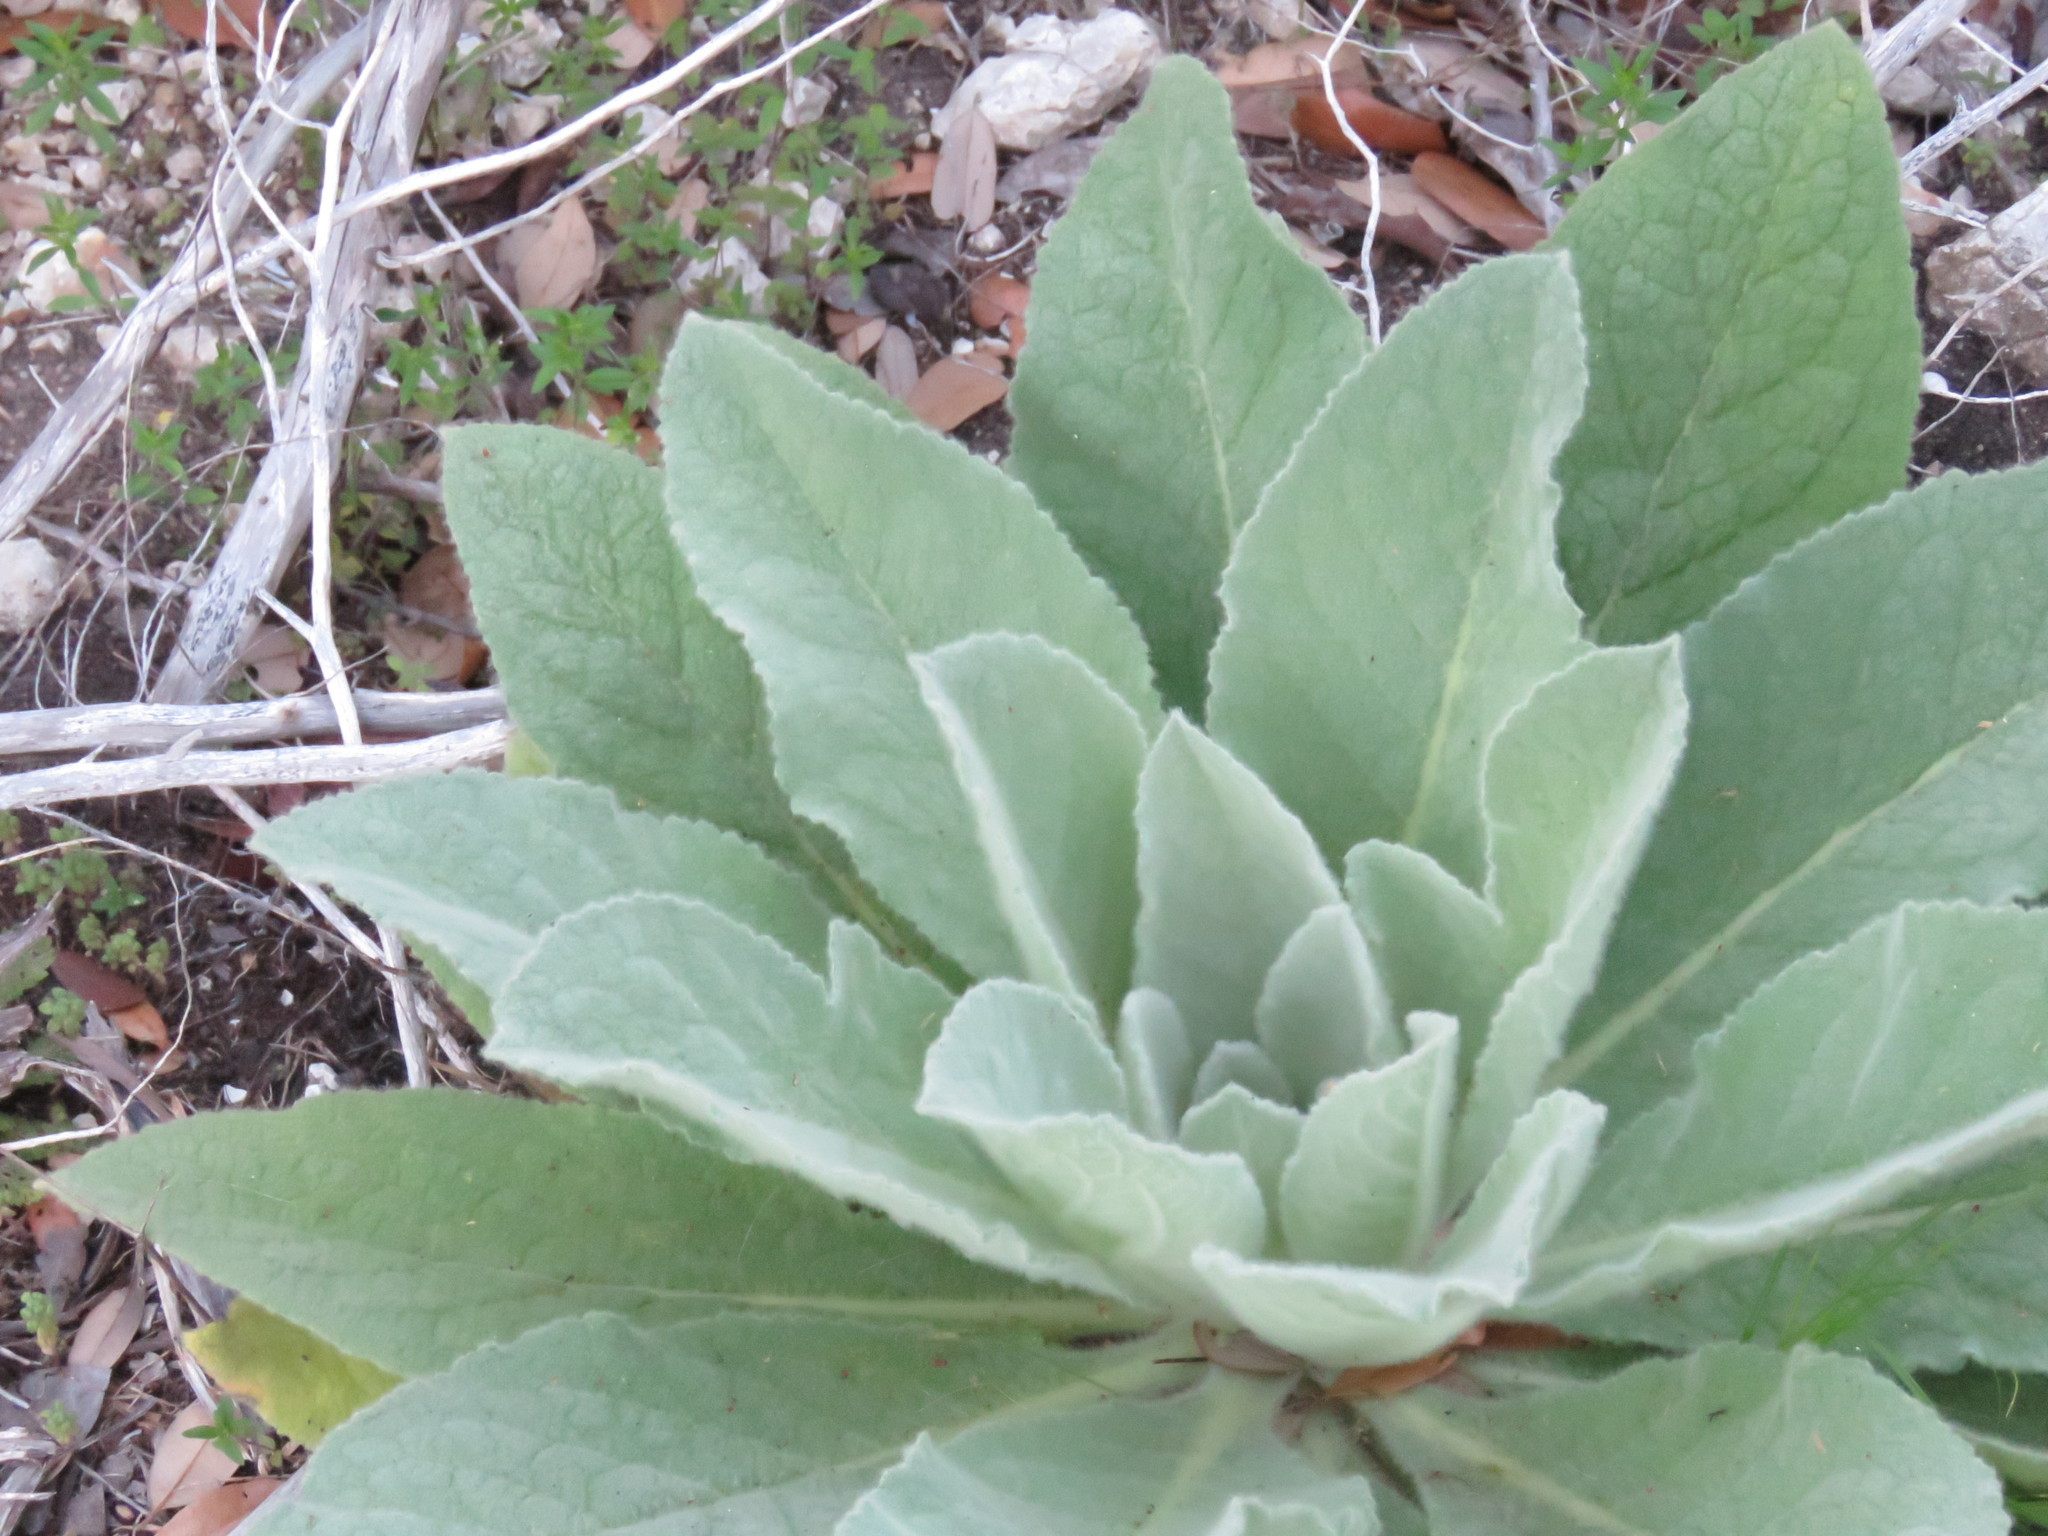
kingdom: Plantae
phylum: Tracheophyta
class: Magnoliopsida
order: Lamiales
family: Scrophulariaceae
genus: Verbascum
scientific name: Verbascum thapsus
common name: Common mullein
